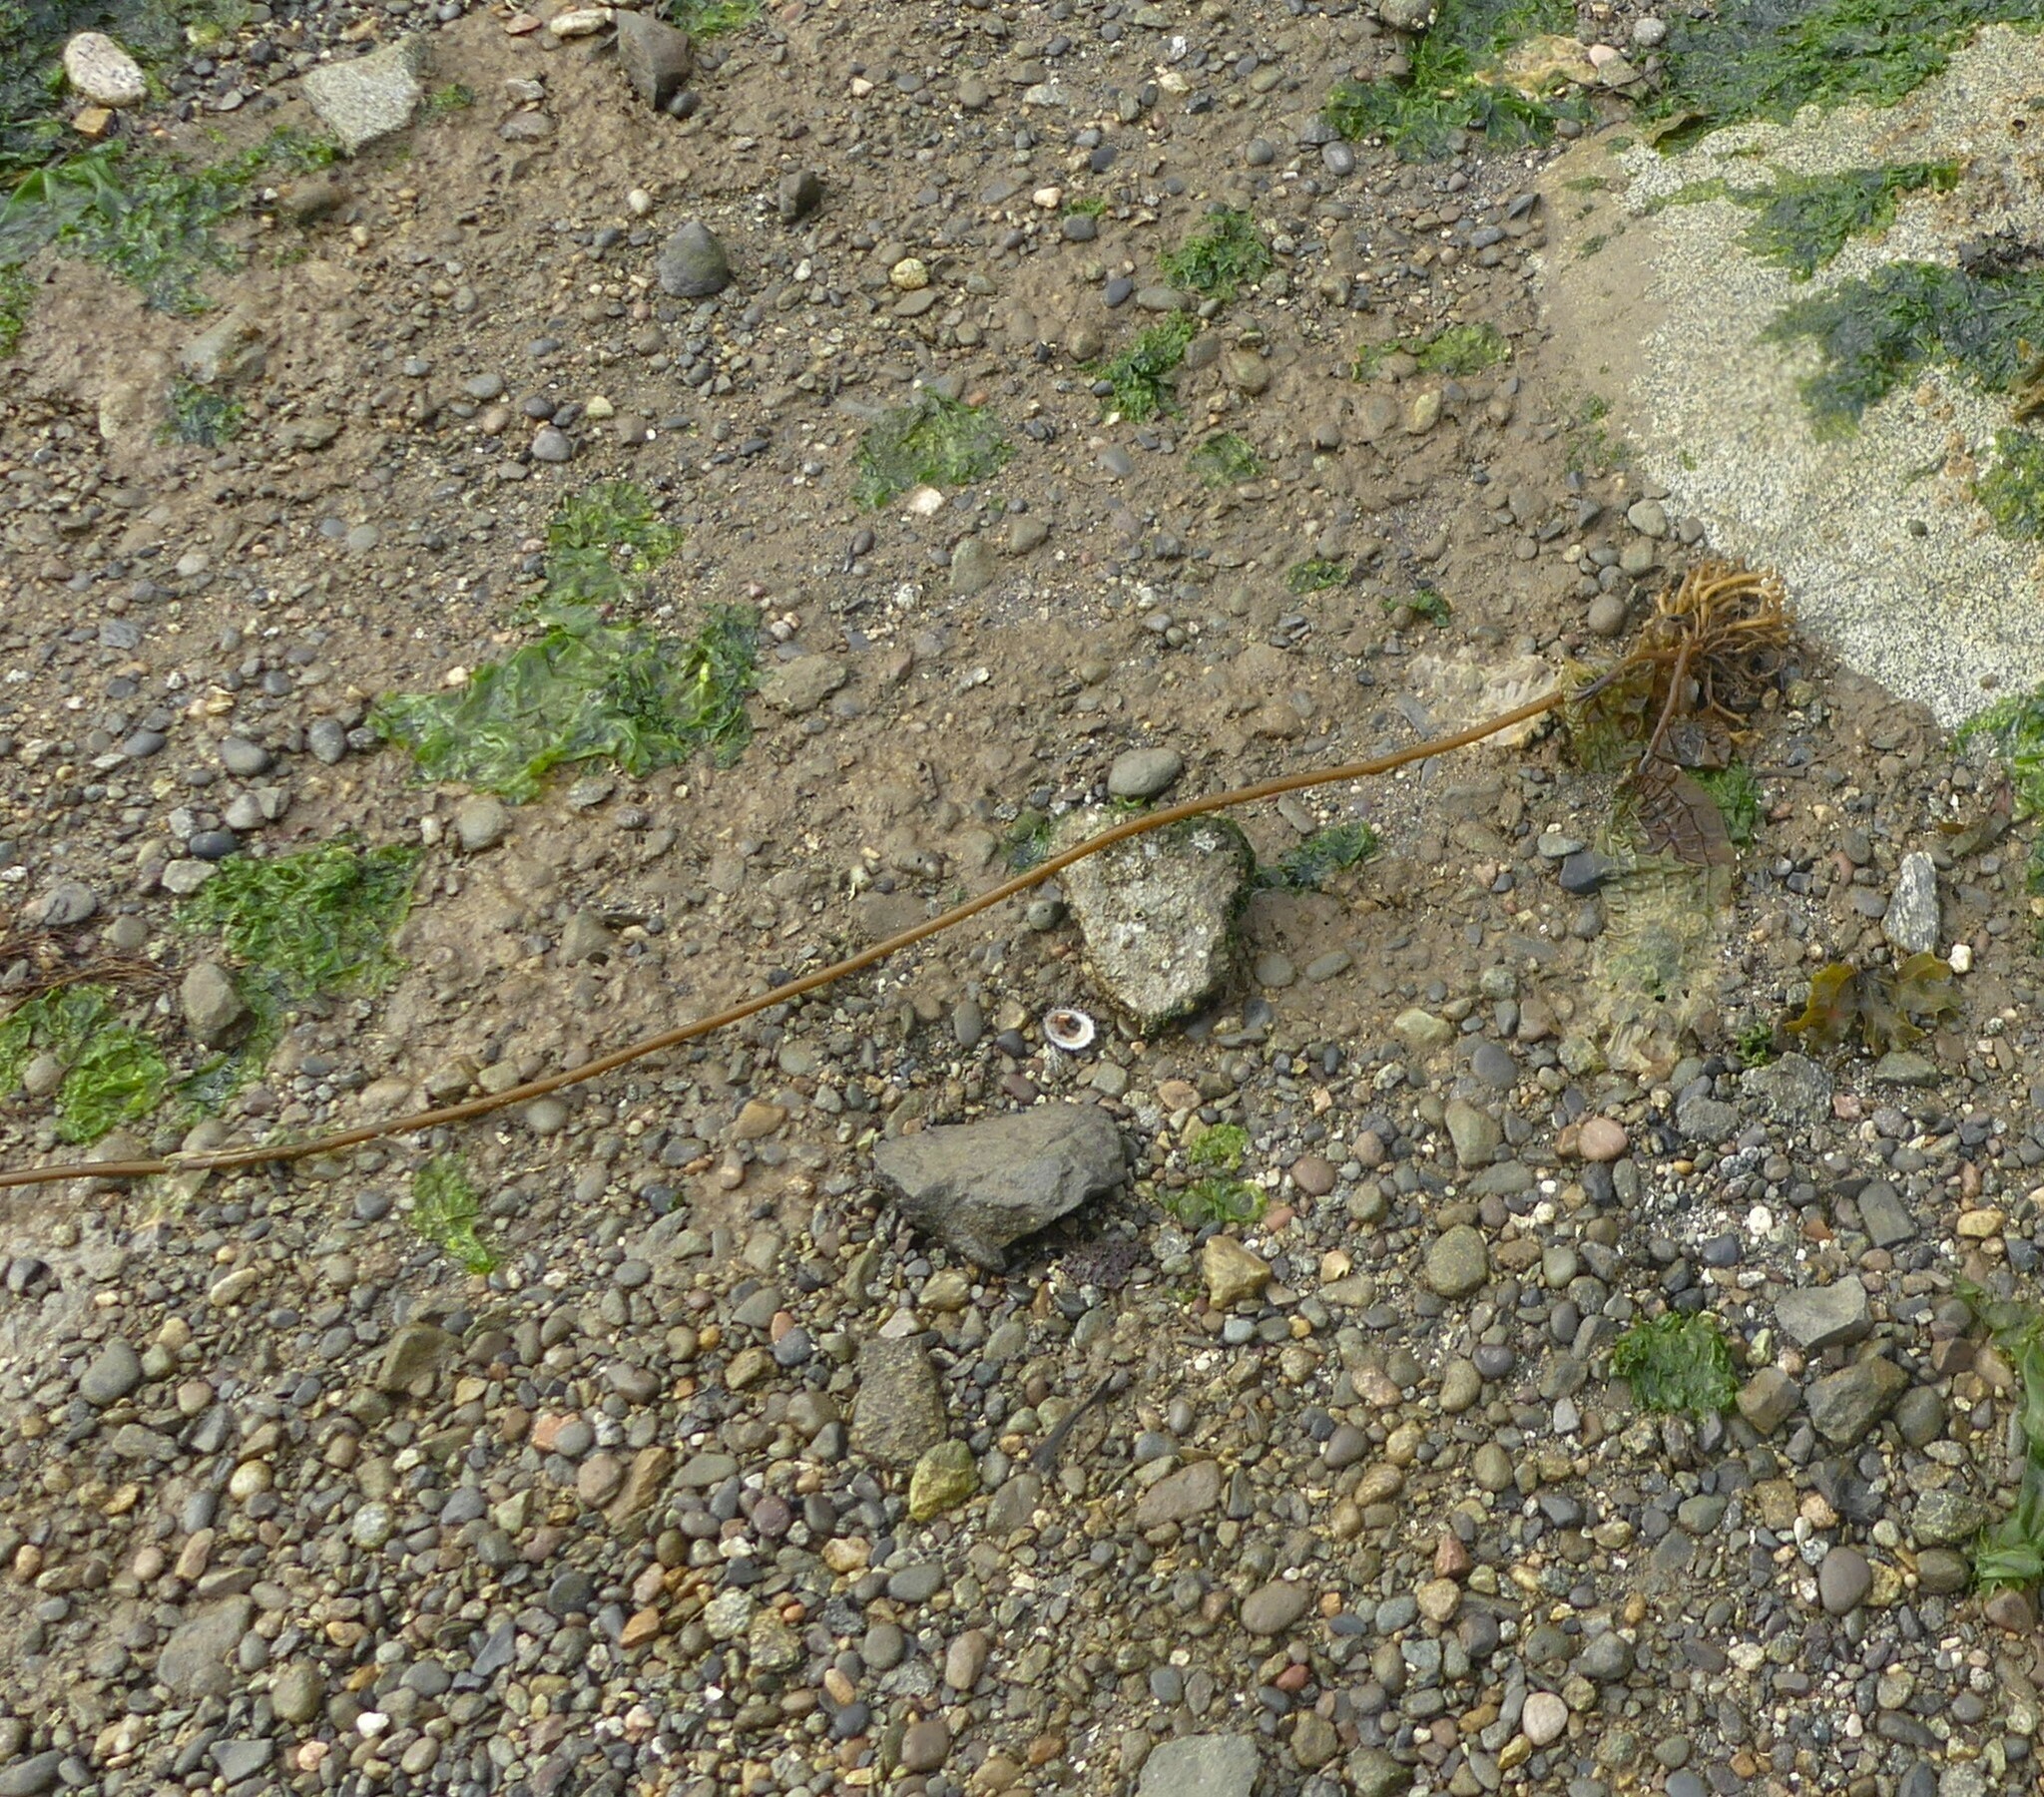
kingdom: Chromista
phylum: Ochrophyta
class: Phaeophyceae
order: Laminariales
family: Laminariaceae
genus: Nereocystis
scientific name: Nereocystis luetkeana
